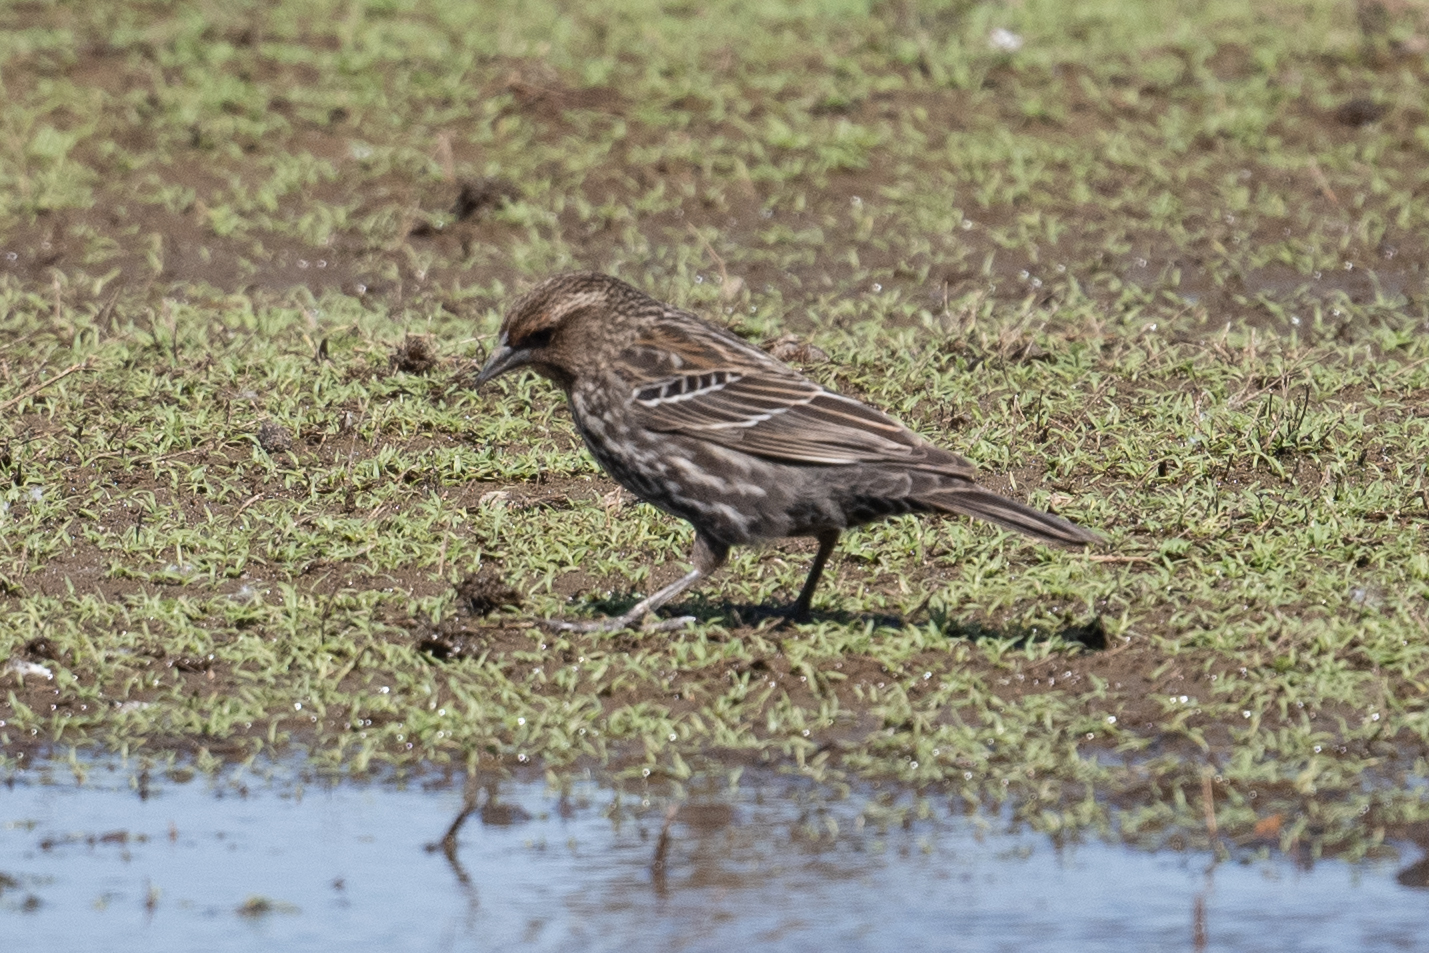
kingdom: Animalia
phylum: Chordata
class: Aves
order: Passeriformes
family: Icteridae
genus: Agelaius
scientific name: Agelaius phoeniceus
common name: Red-winged blackbird
